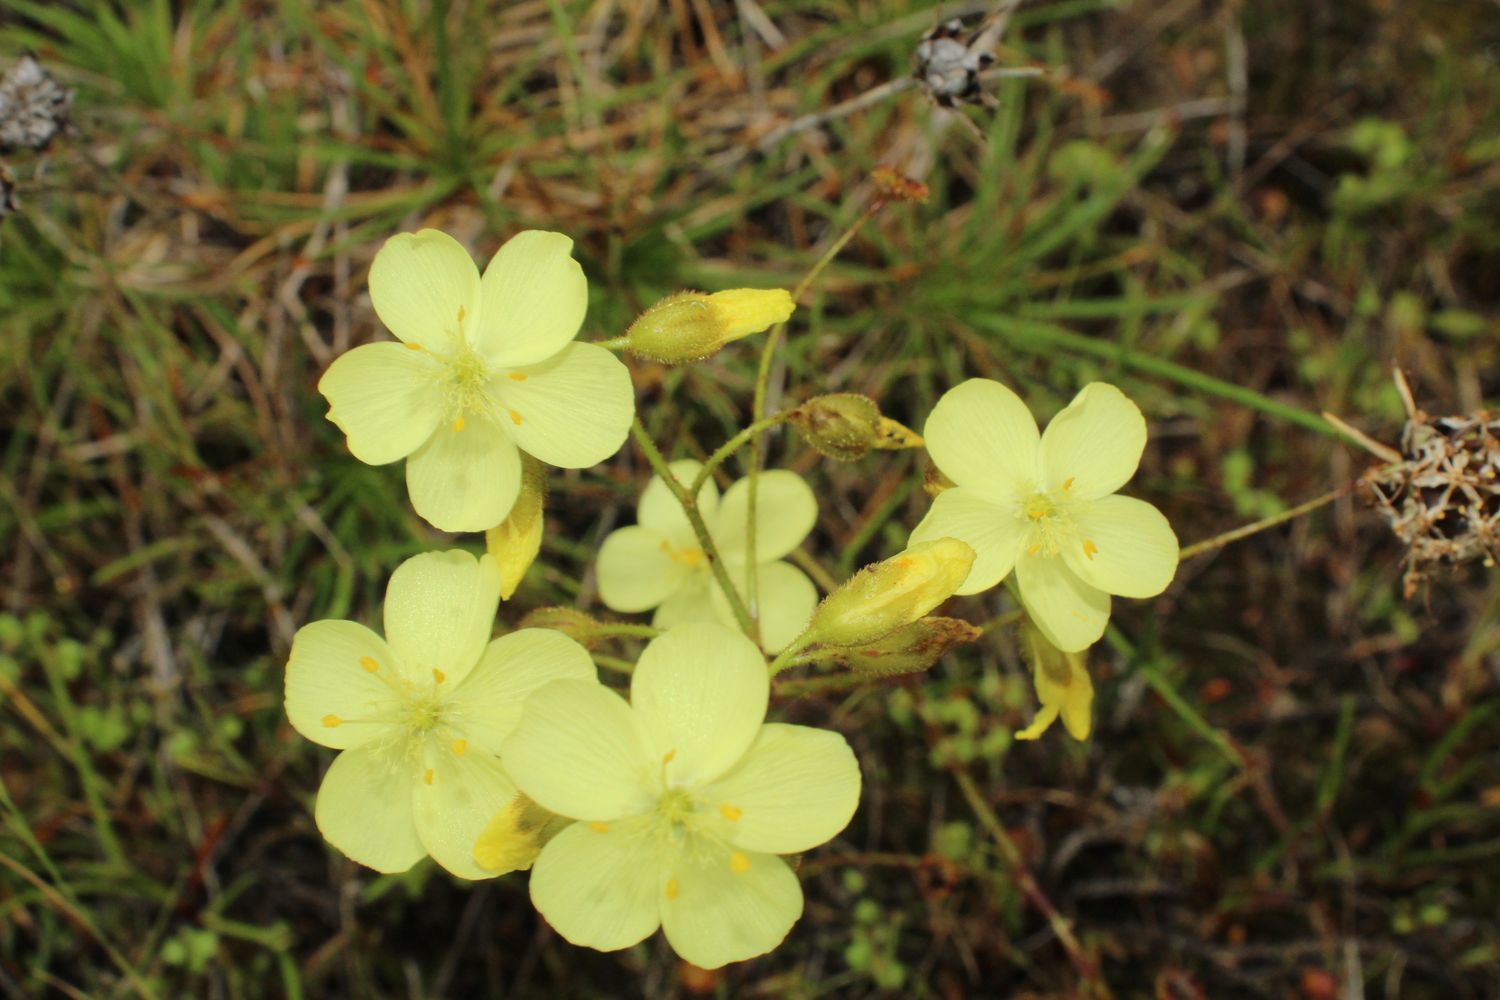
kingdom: Plantae
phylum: Tracheophyta
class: Magnoliopsida
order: Caryophyllales
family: Droseraceae
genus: Drosera
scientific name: Drosera subhirtella
